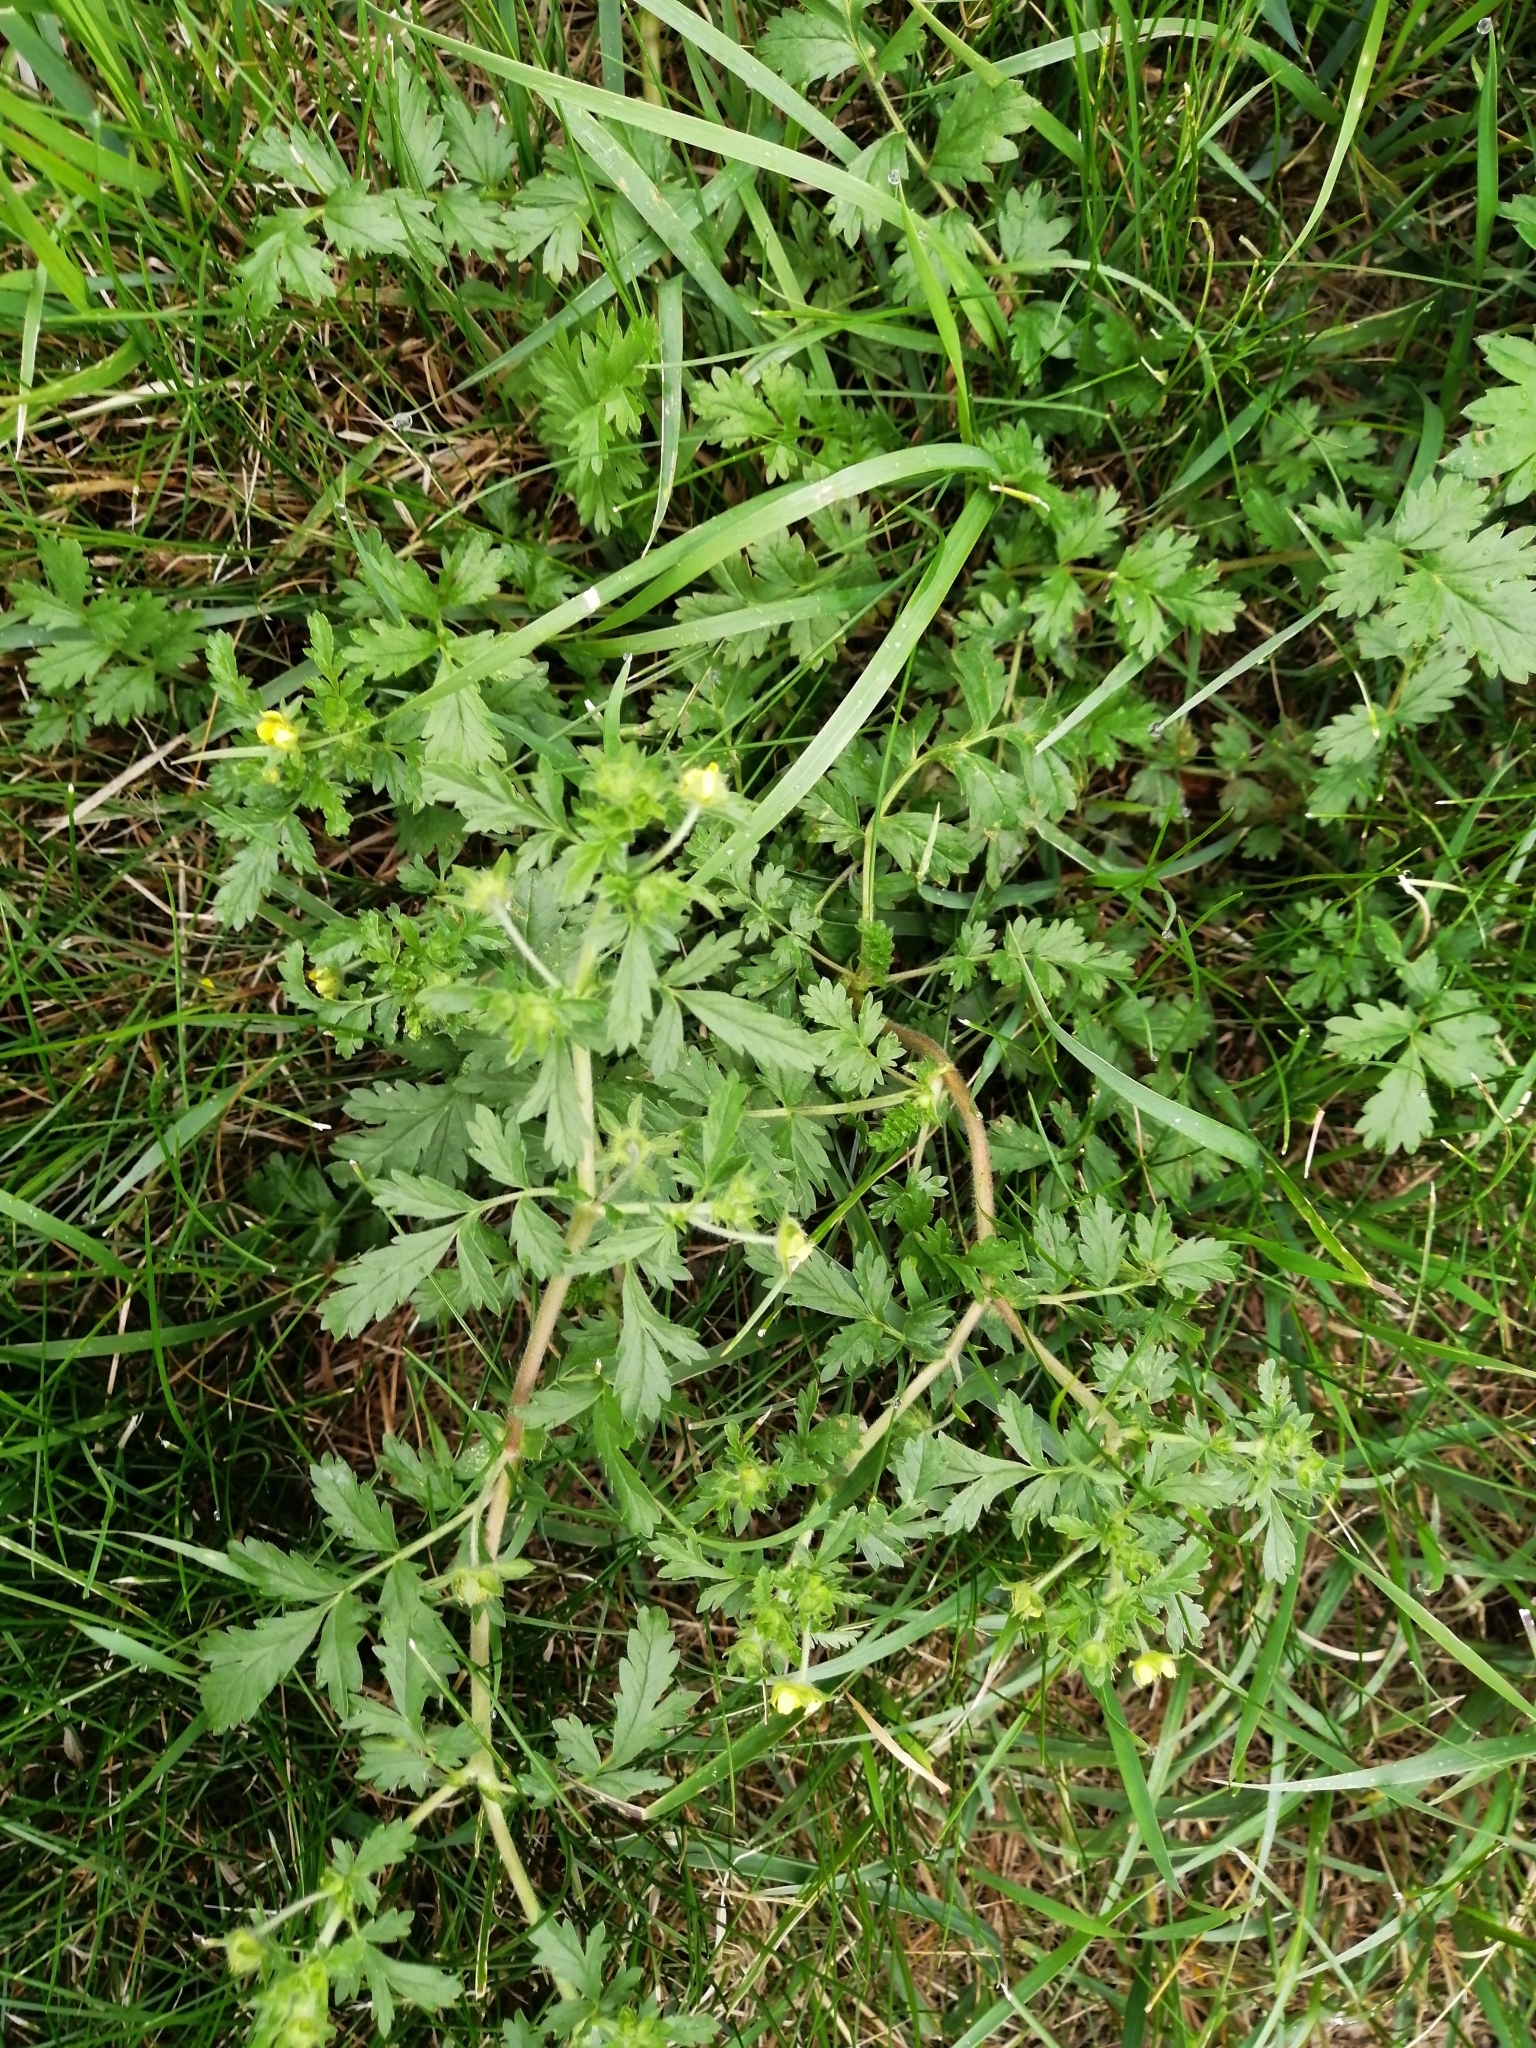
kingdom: Plantae
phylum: Tracheophyta
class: Magnoliopsida
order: Rosales
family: Rosaceae
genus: Potentilla
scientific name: Potentilla supina
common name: Prostrate cinquefoil
